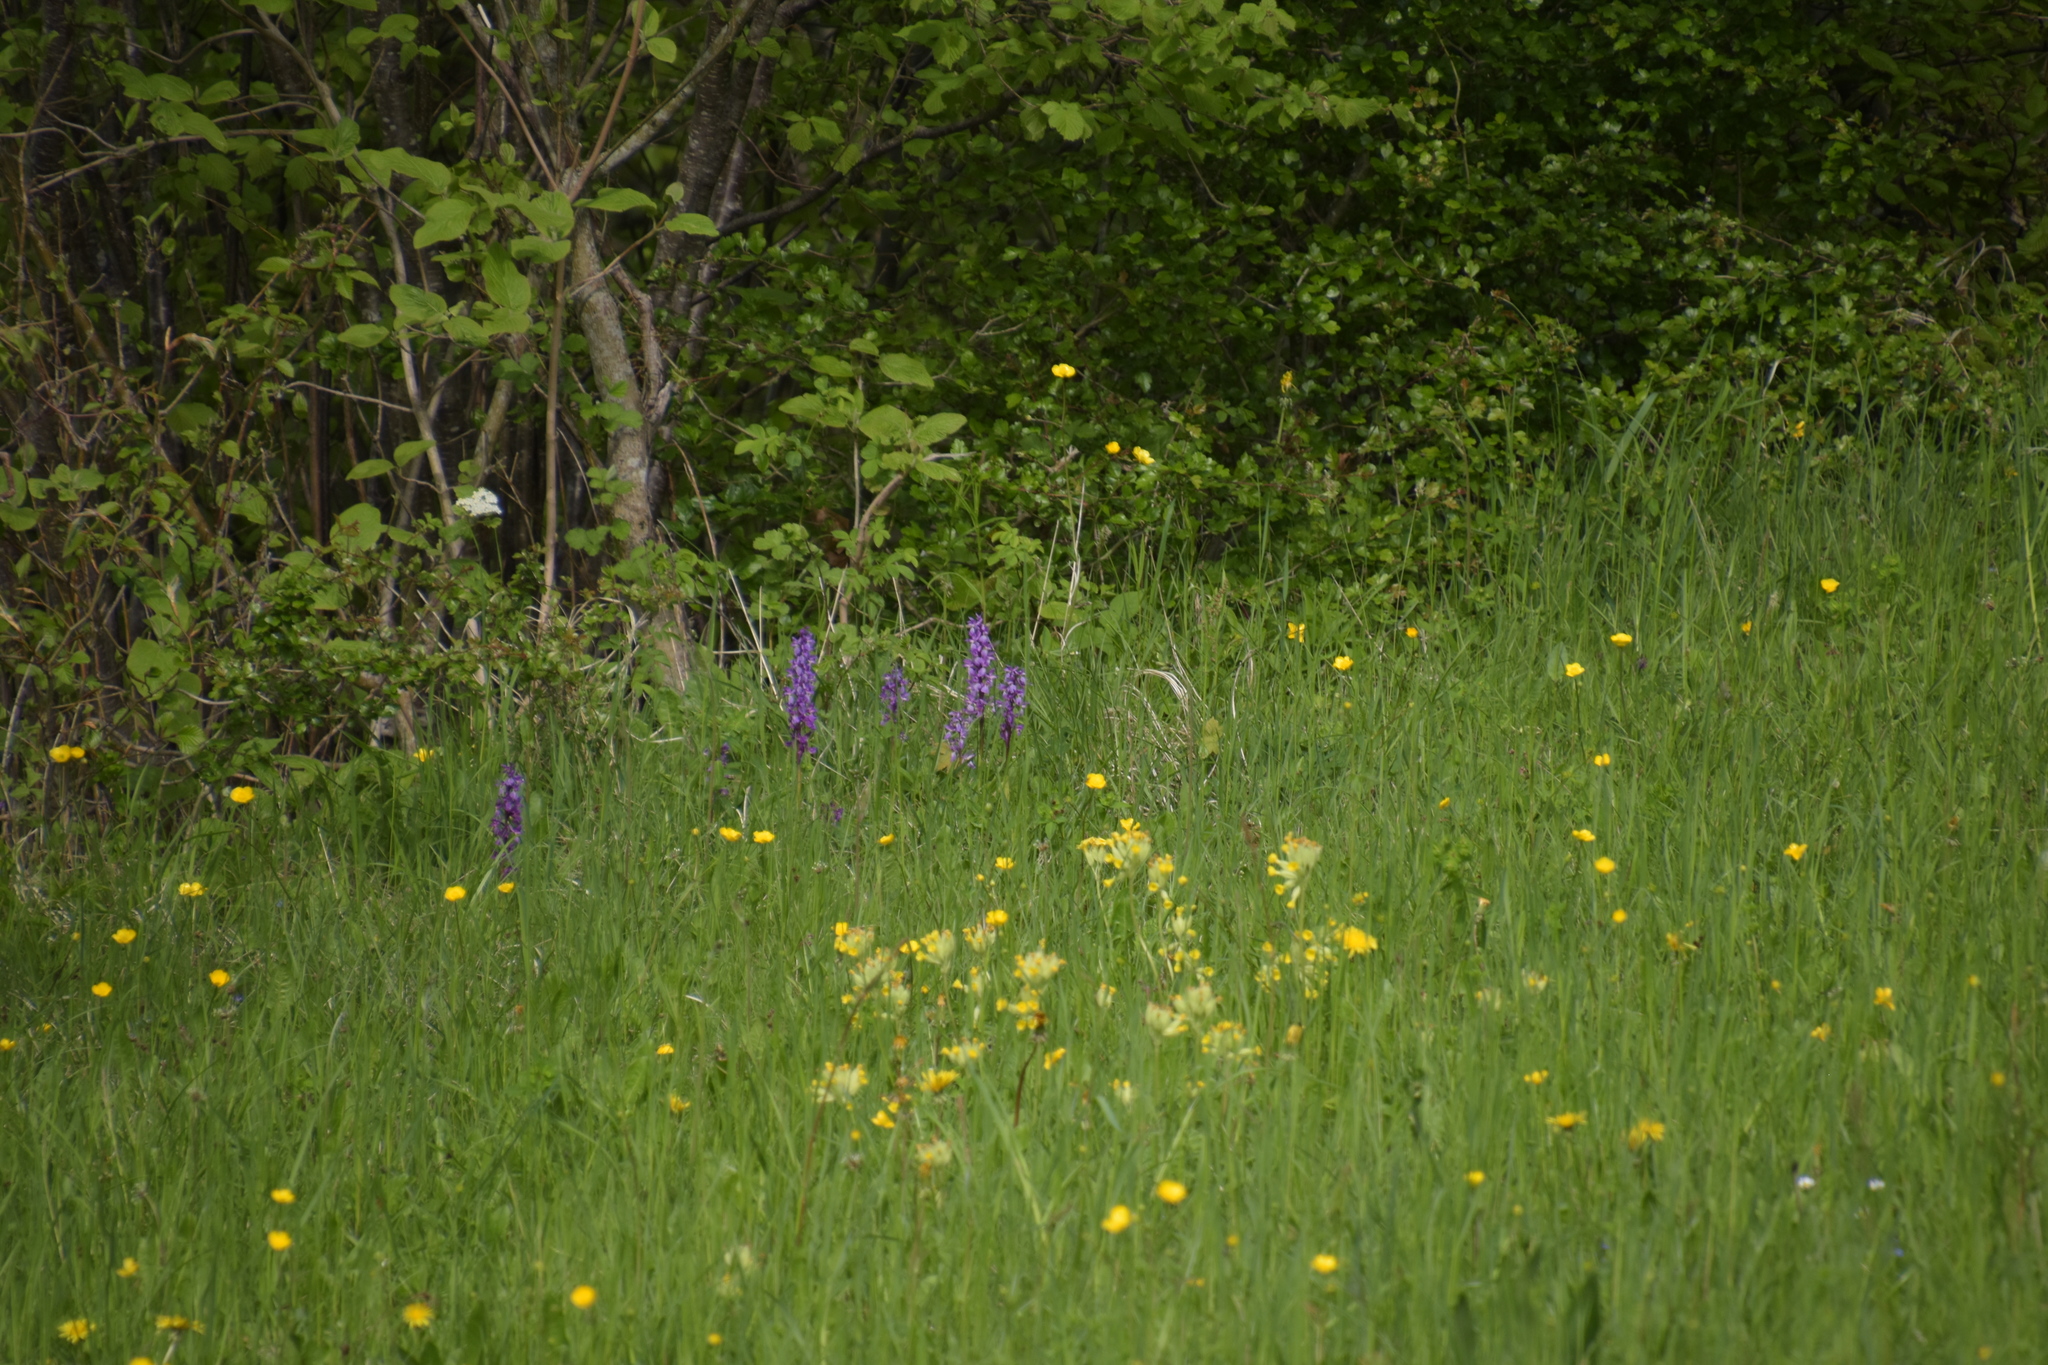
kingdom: Plantae
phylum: Tracheophyta
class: Liliopsida
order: Asparagales
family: Orchidaceae
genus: Orchis
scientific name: Orchis mascula
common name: Early-purple orchid
